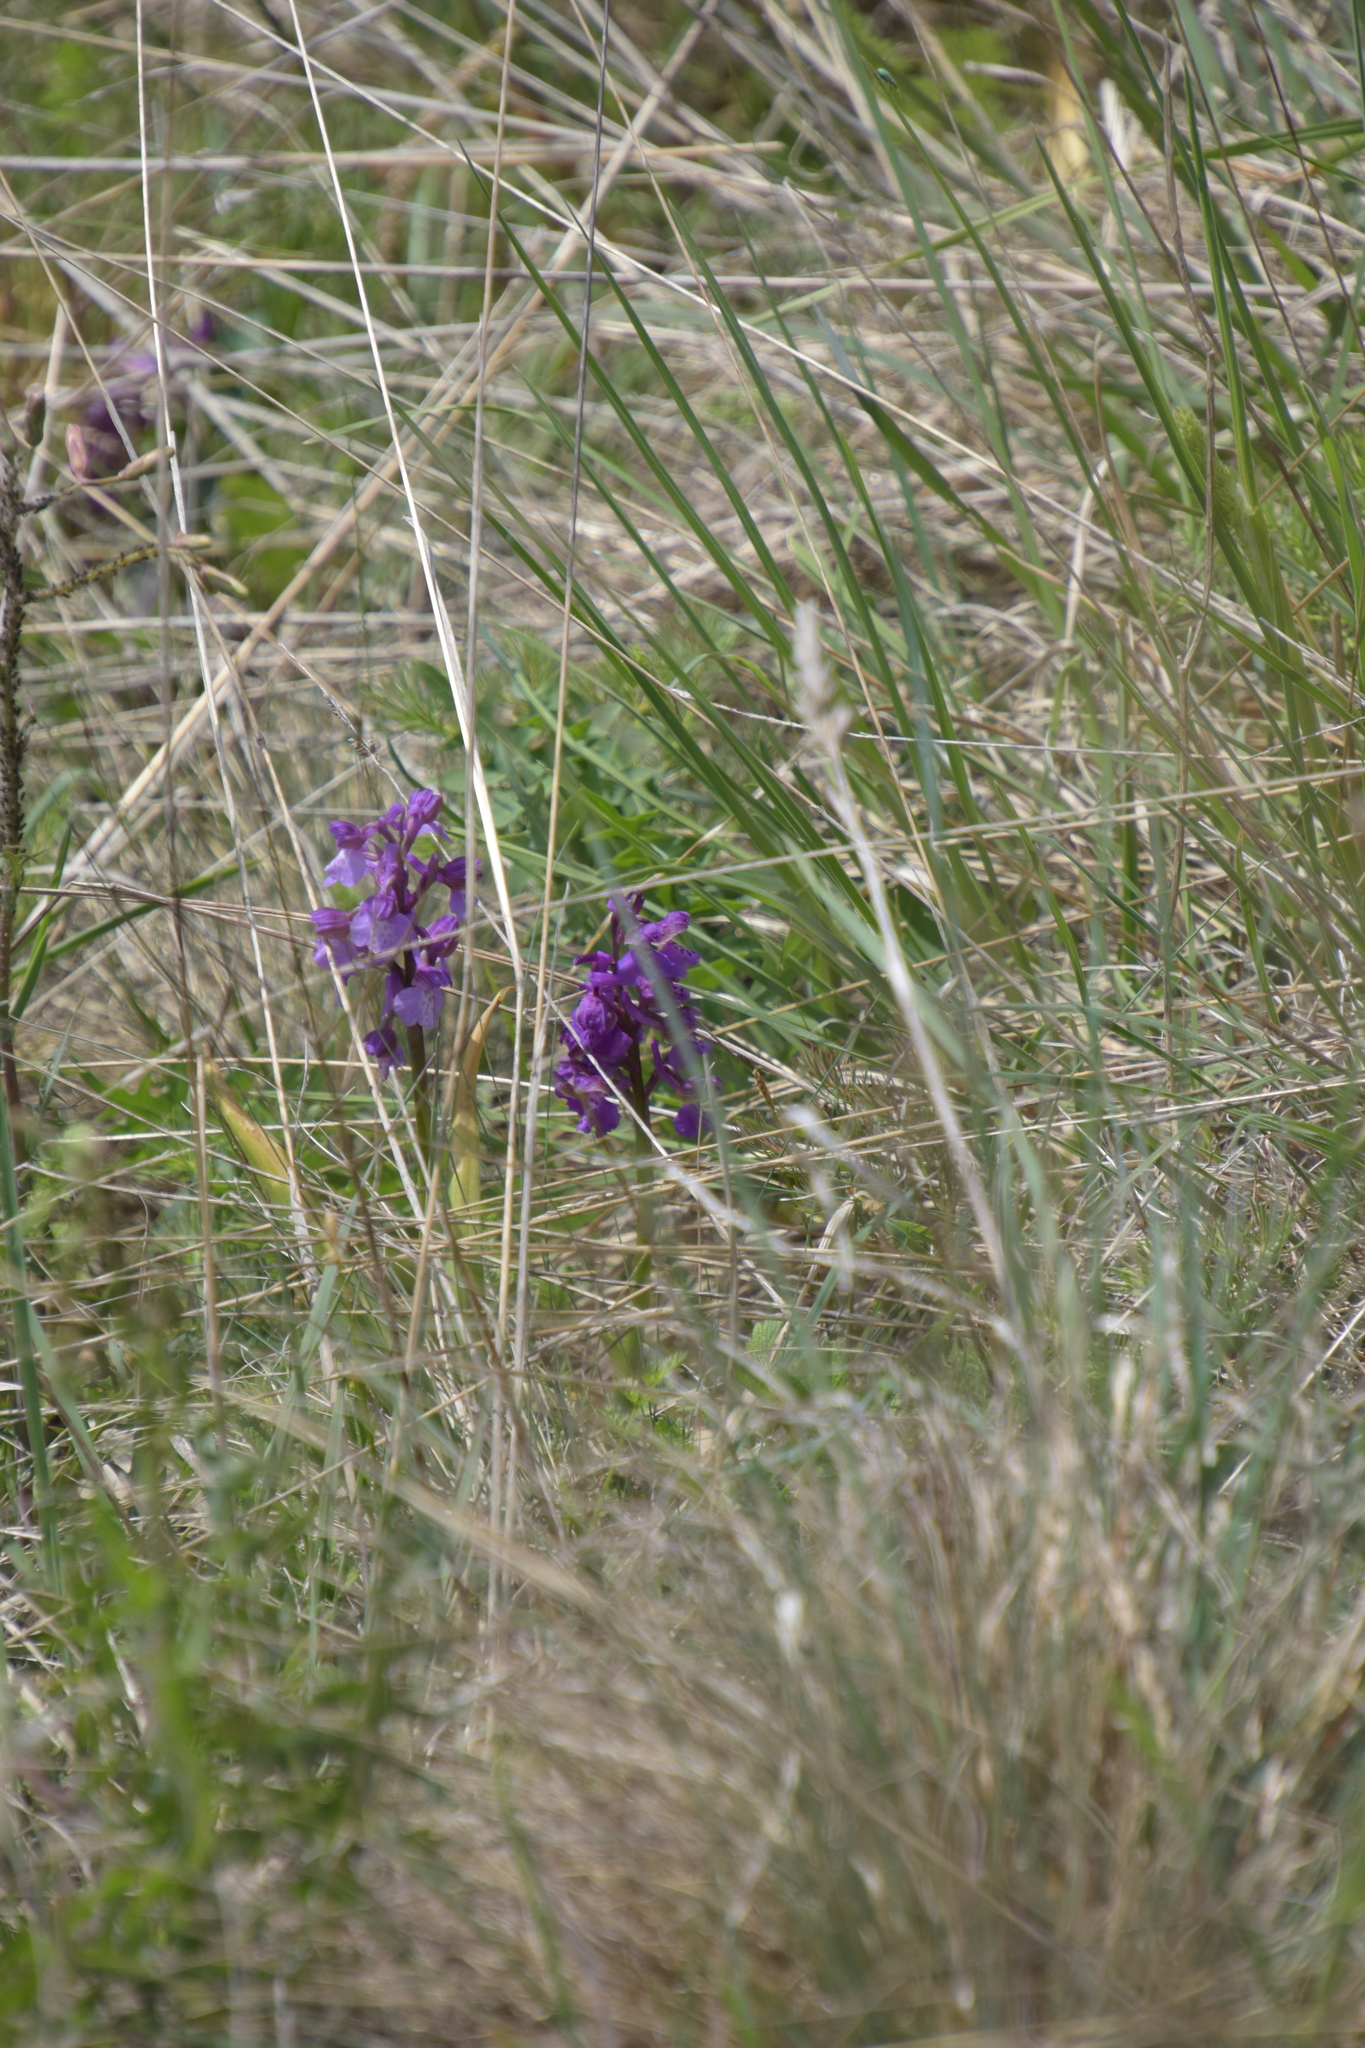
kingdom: Plantae
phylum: Tracheophyta
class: Liliopsida
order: Asparagales
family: Orchidaceae
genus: Anacamptis
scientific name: Anacamptis morio
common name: Green-winged orchid
